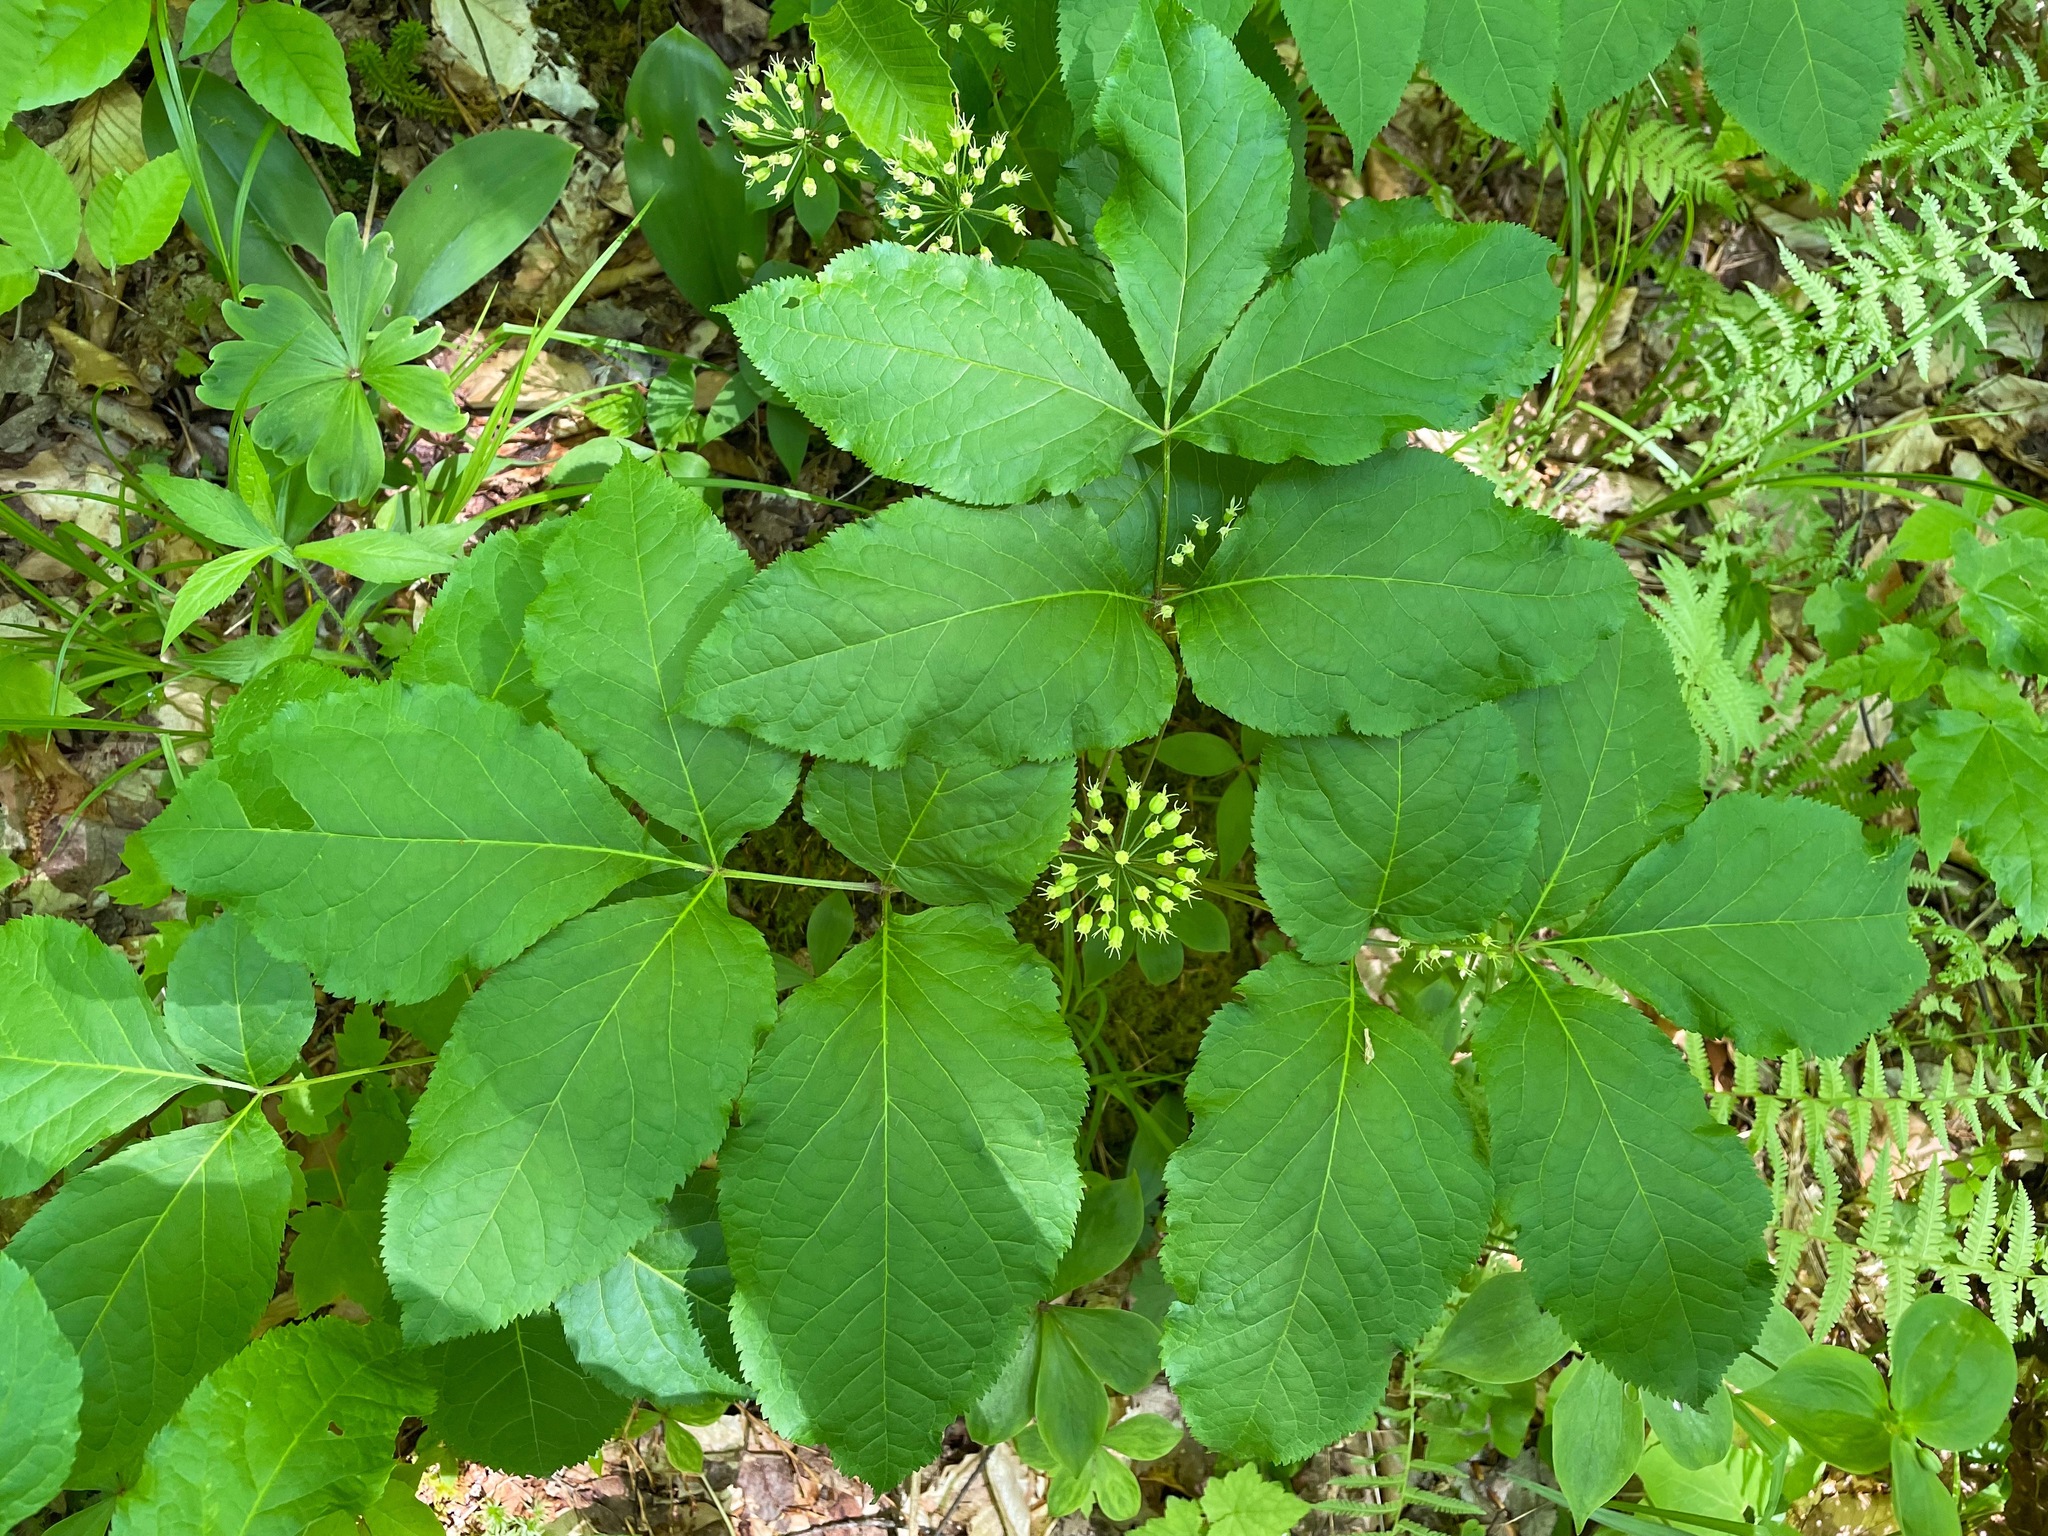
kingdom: Plantae
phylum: Tracheophyta
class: Magnoliopsida
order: Apiales
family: Araliaceae
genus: Aralia
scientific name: Aralia nudicaulis
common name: Wild sarsaparilla
